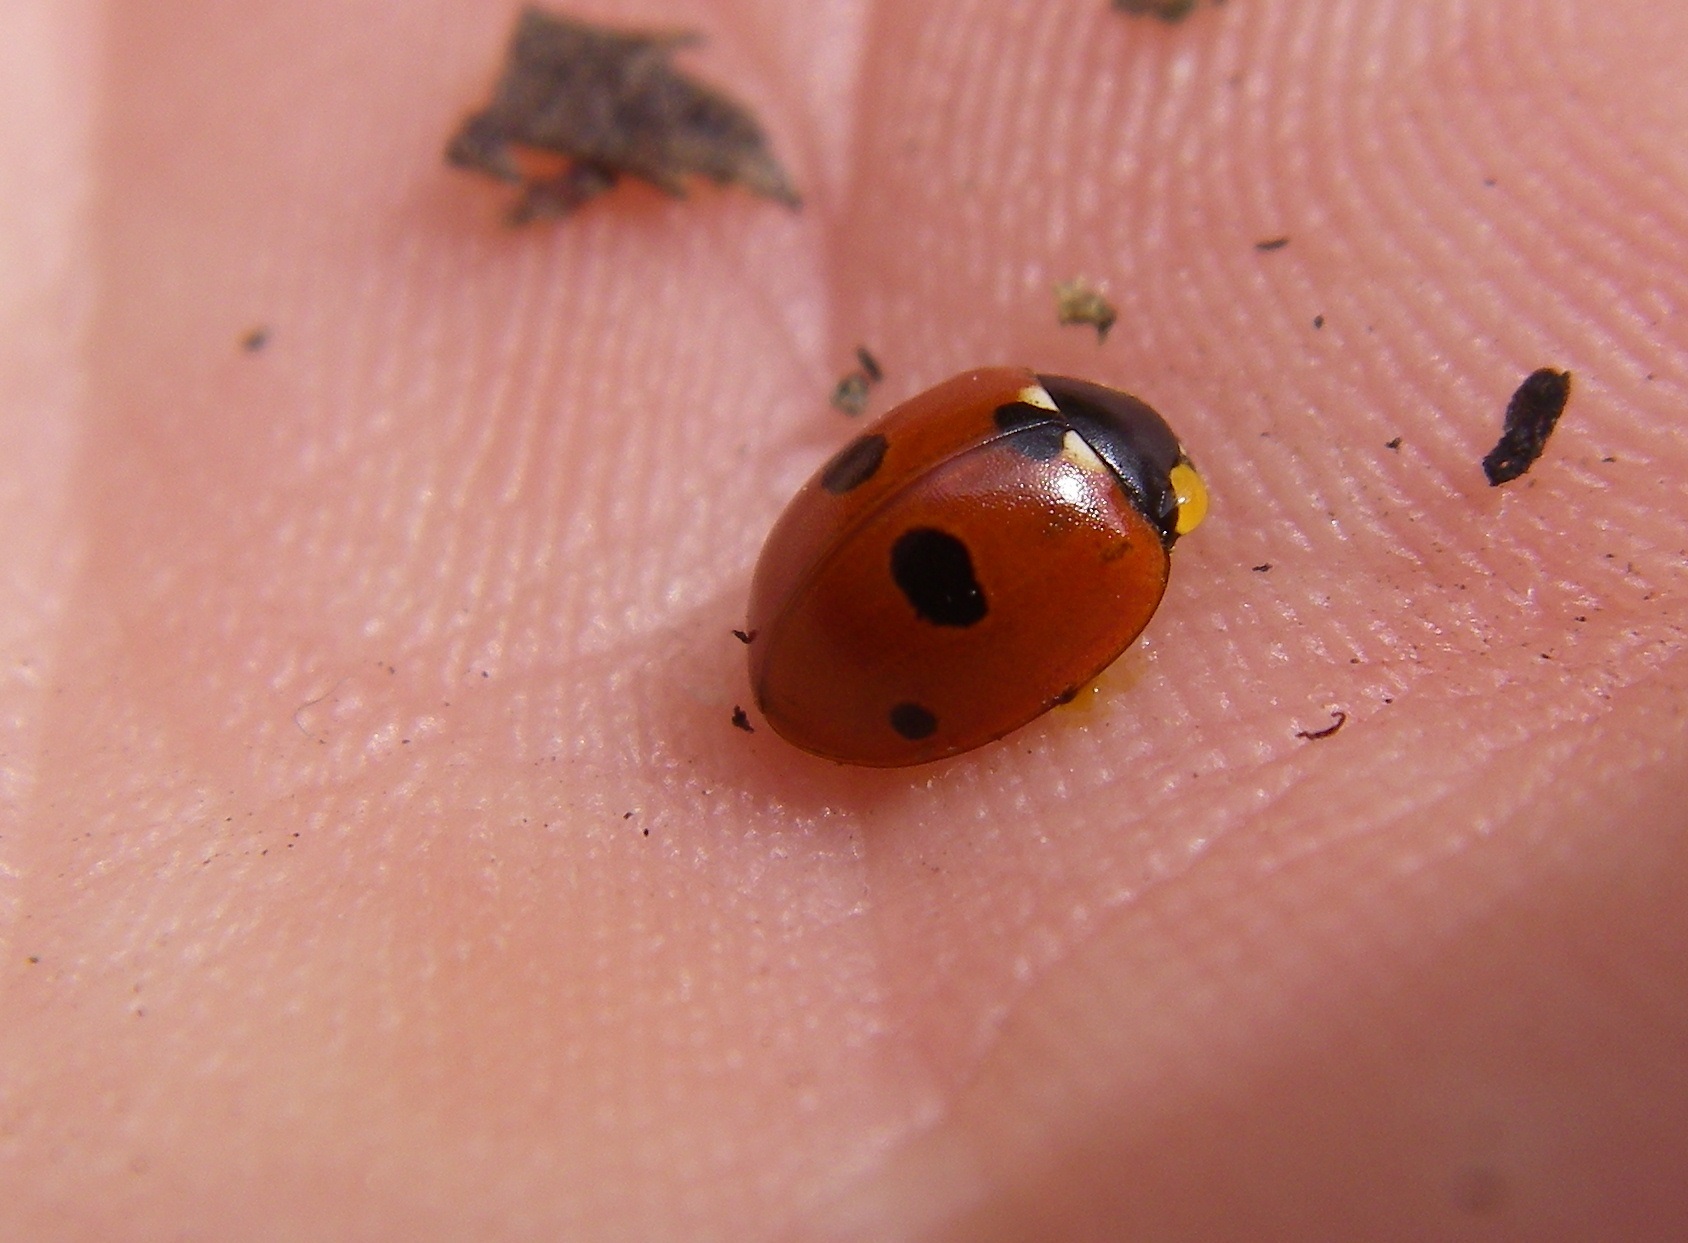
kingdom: Animalia
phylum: Arthropoda
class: Insecta
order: Coleoptera
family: Coccinellidae
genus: Coccinella
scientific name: Coccinella quinquepunctata
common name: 5-spot ladybird
